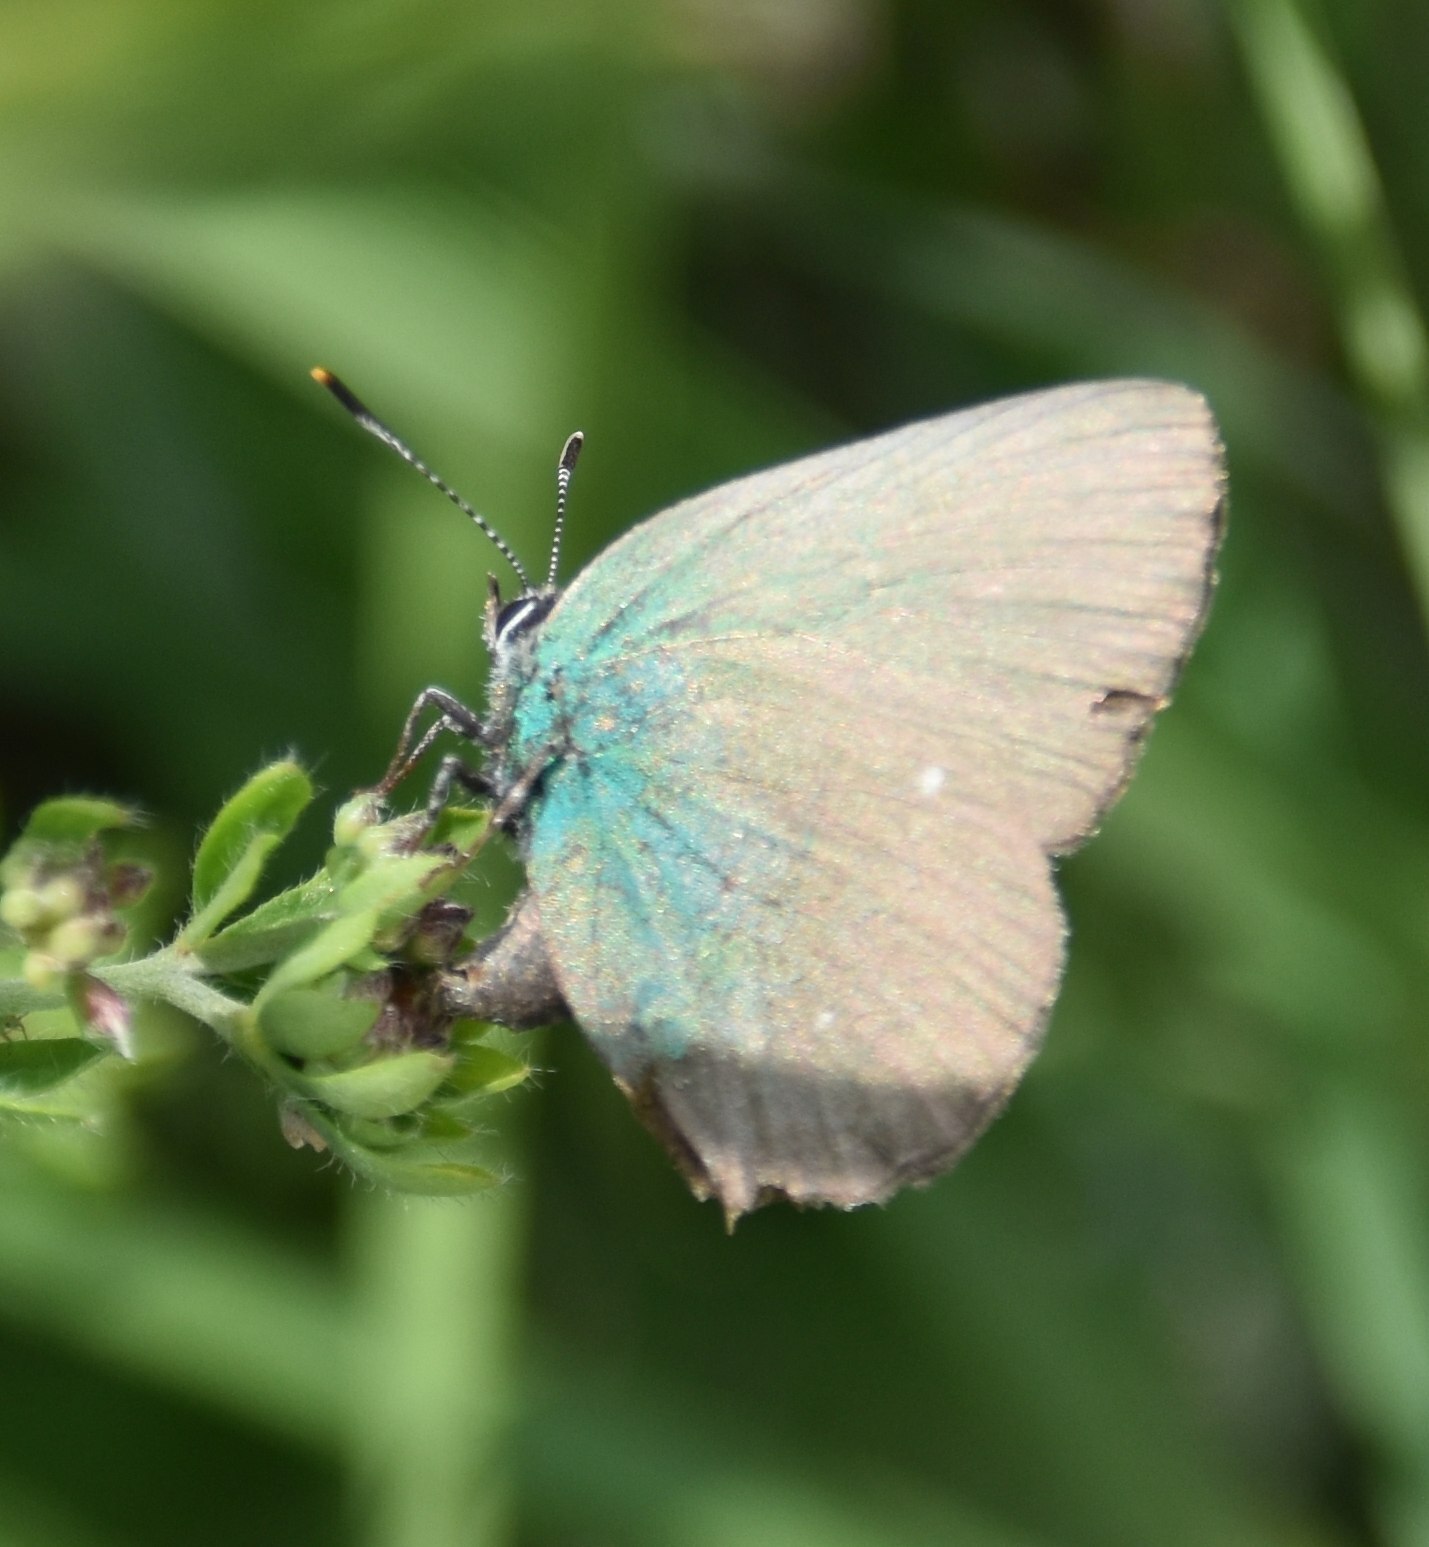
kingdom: Animalia
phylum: Arthropoda
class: Insecta
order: Lepidoptera
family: Lycaenidae
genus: Callophrys
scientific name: Callophrys rubi
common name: Green hairstreak
